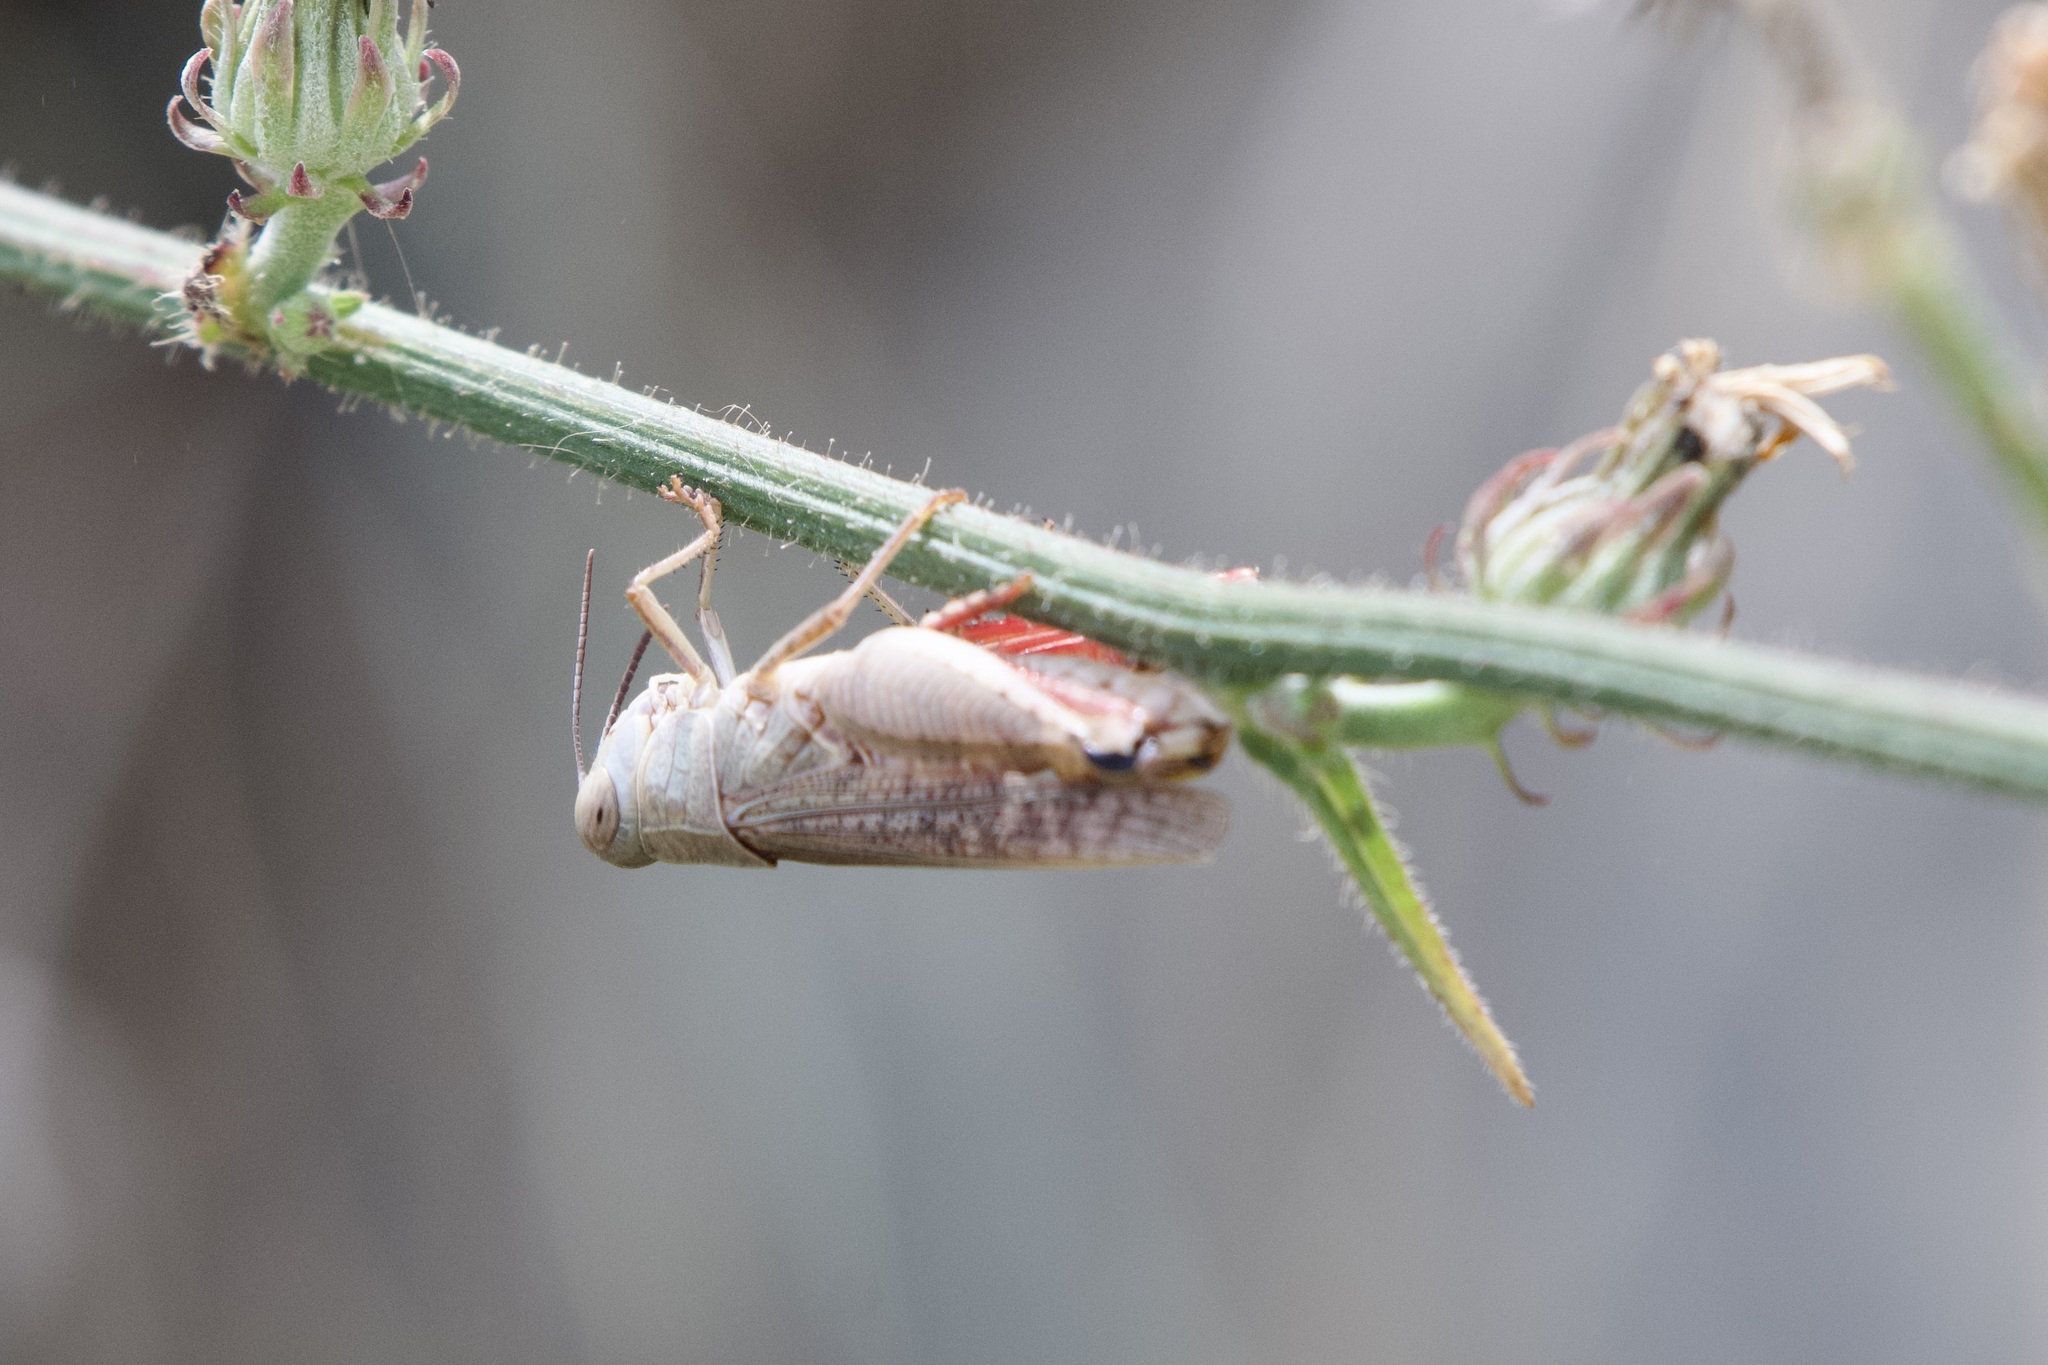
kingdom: Animalia
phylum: Arthropoda
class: Insecta
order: Orthoptera
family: Acrididae
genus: Calliptamus
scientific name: Calliptamus italicus
